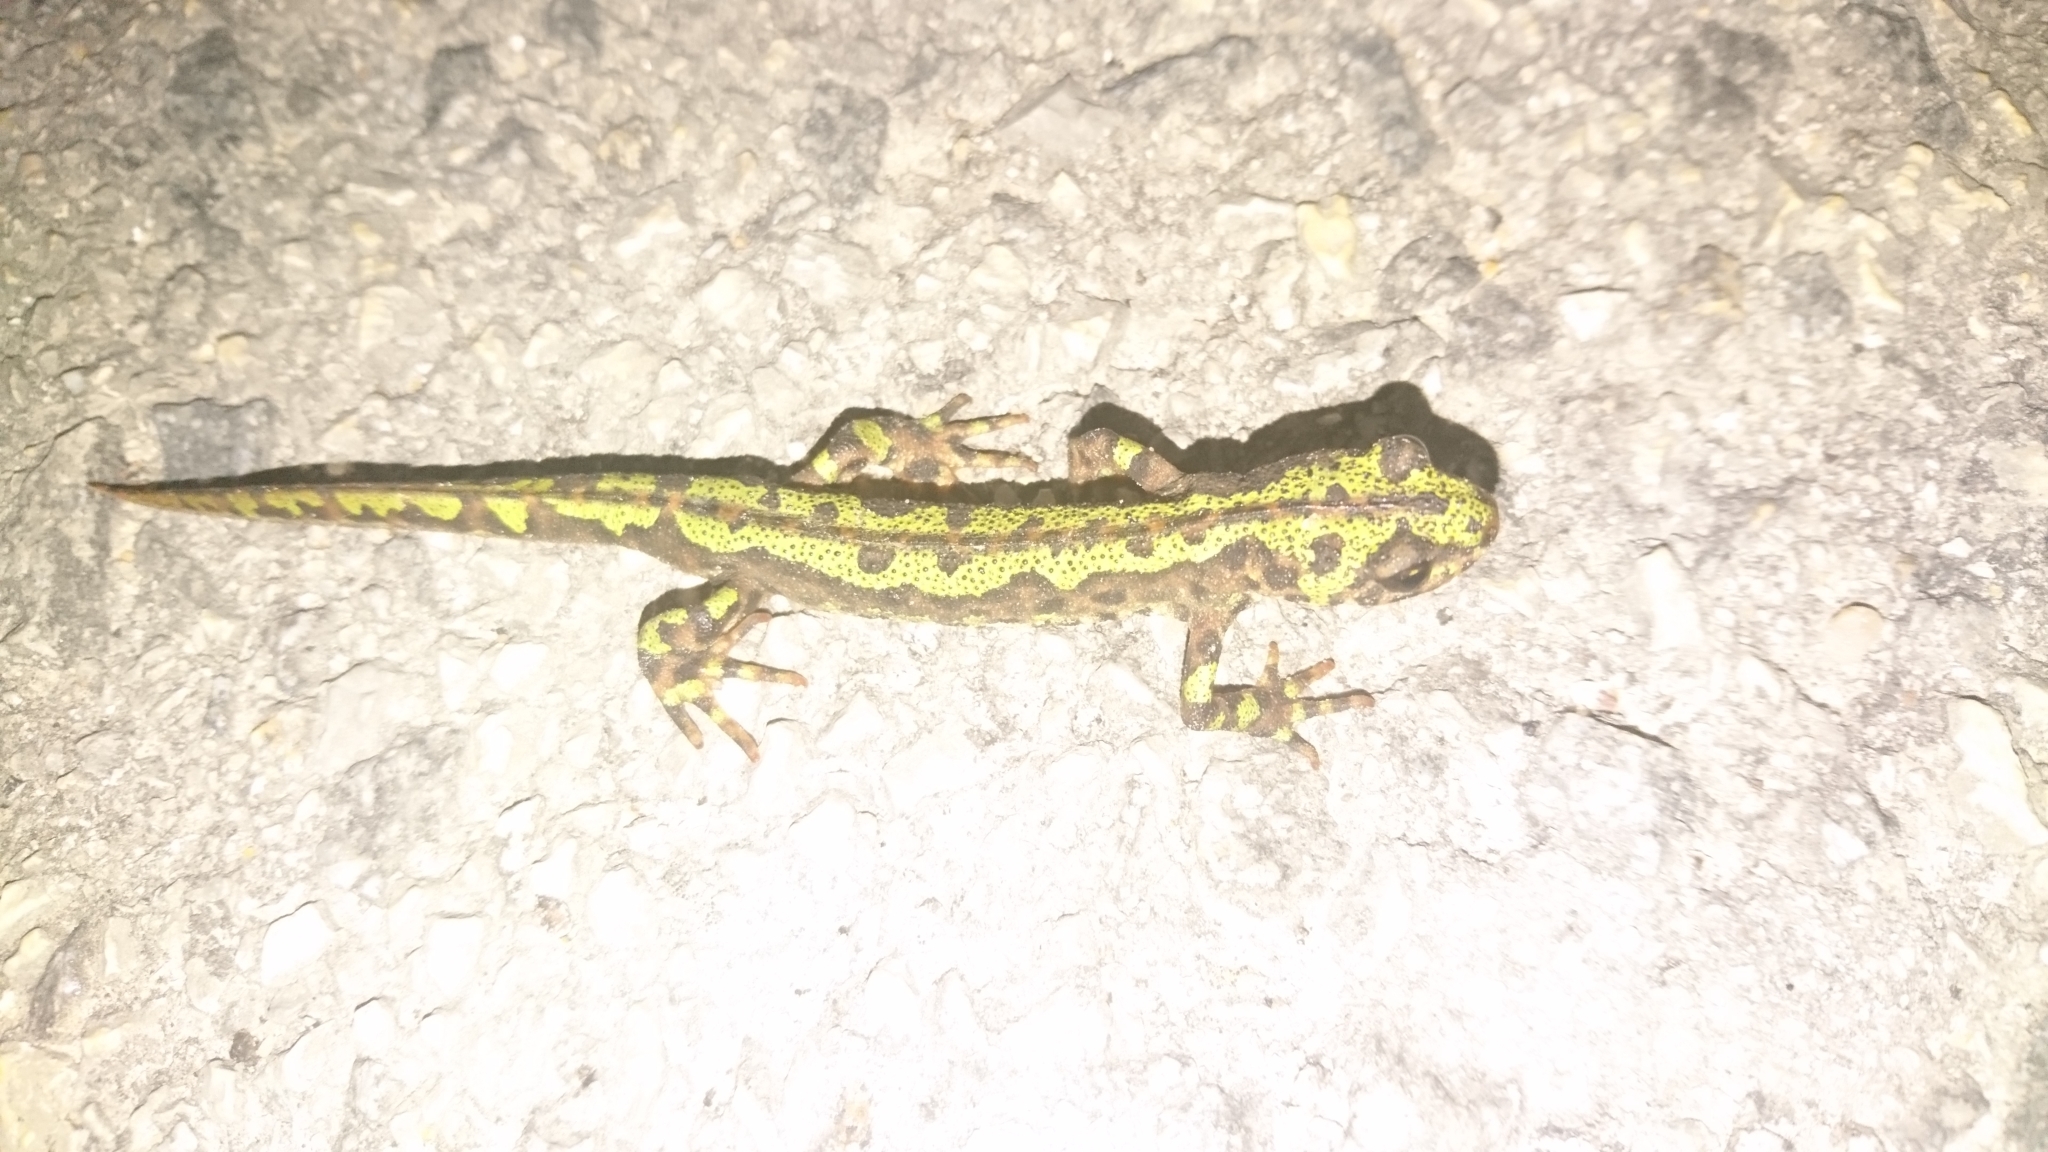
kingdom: Animalia
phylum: Chordata
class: Amphibia
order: Caudata
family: Salamandridae
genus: Triturus
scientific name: Triturus marmoratus
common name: Marbled newt
